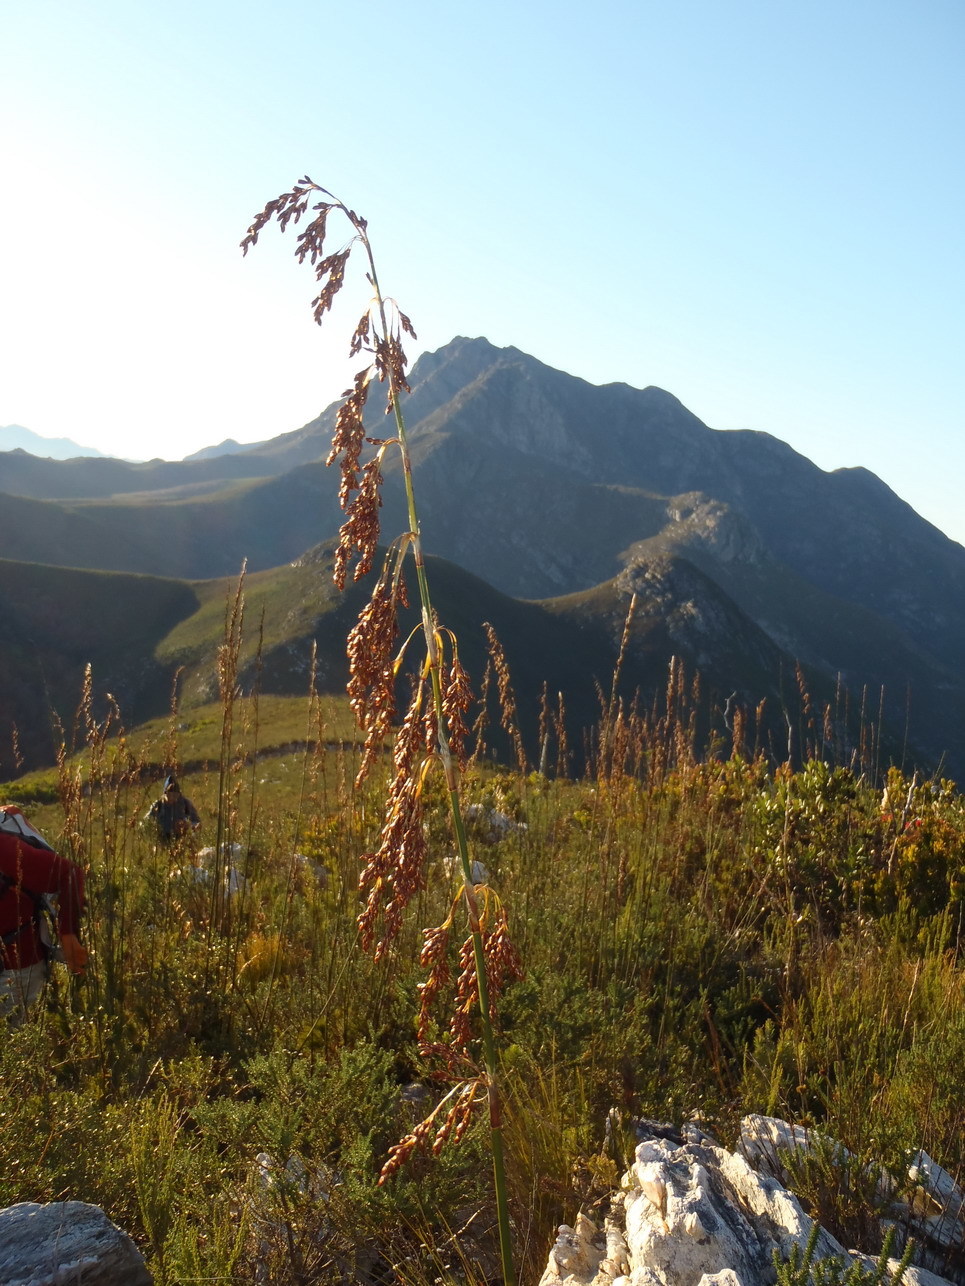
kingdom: Plantae
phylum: Tracheophyta
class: Liliopsida
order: Poales
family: Restionaceae
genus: Rhodocoma
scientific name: Rhodocoma gigantea
